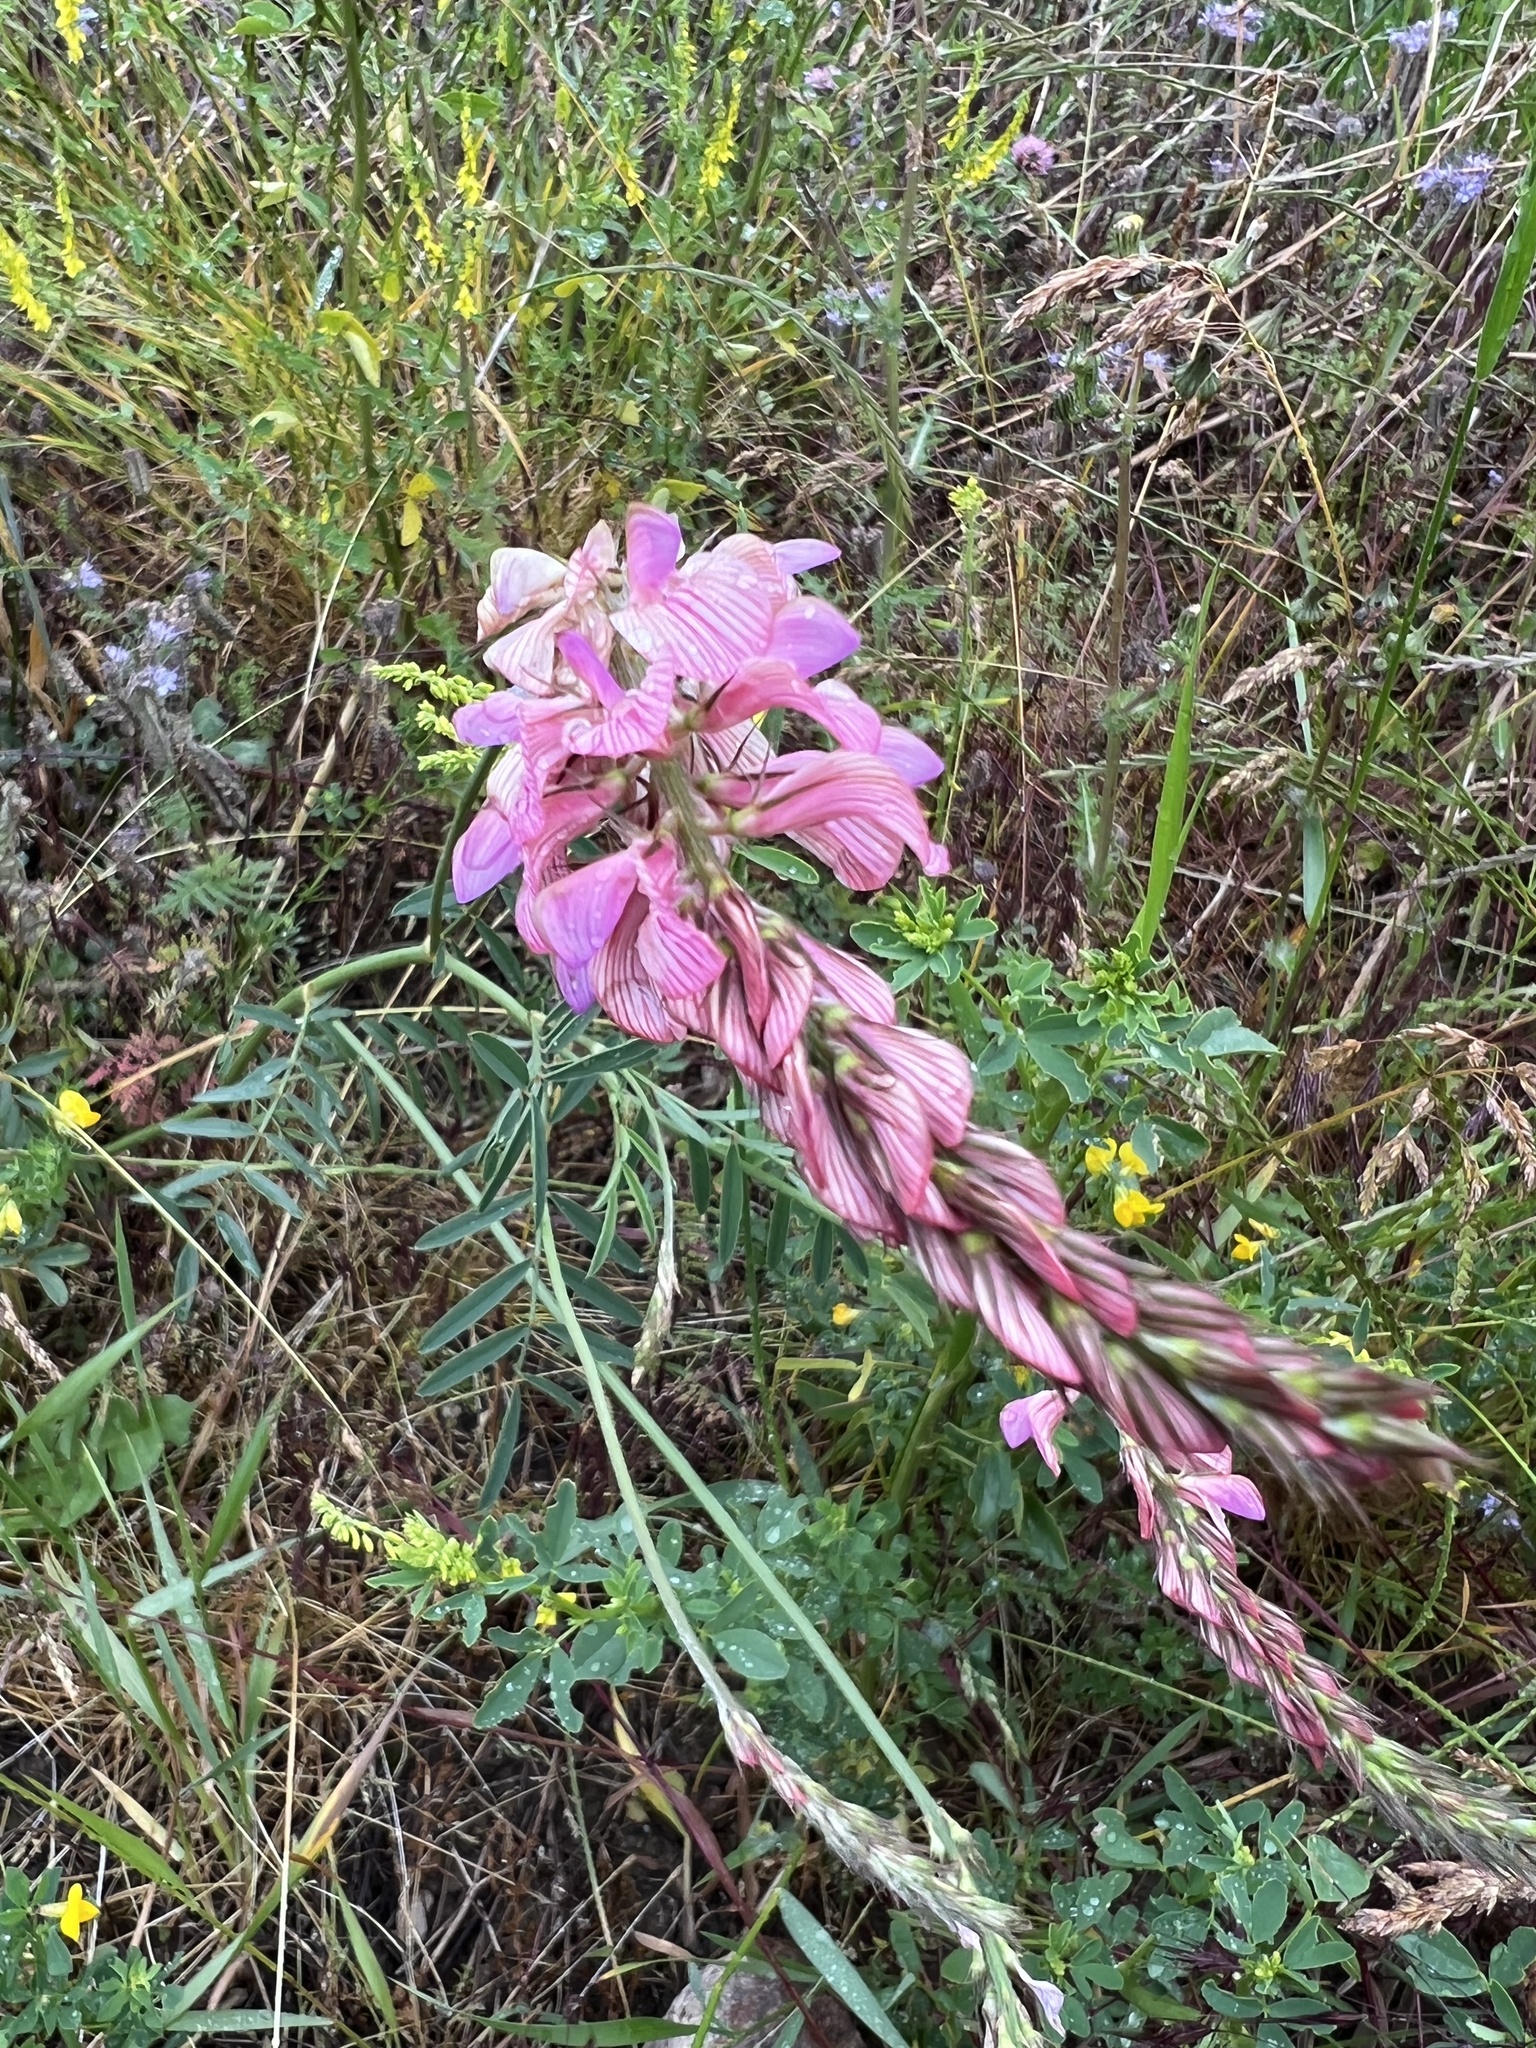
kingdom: Plantae
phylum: Tracheophyta
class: Magnoliopsida
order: Fabales
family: Fabaceae
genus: Onobrychis
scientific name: Onobrychis viciifolia
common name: Sainfoin
